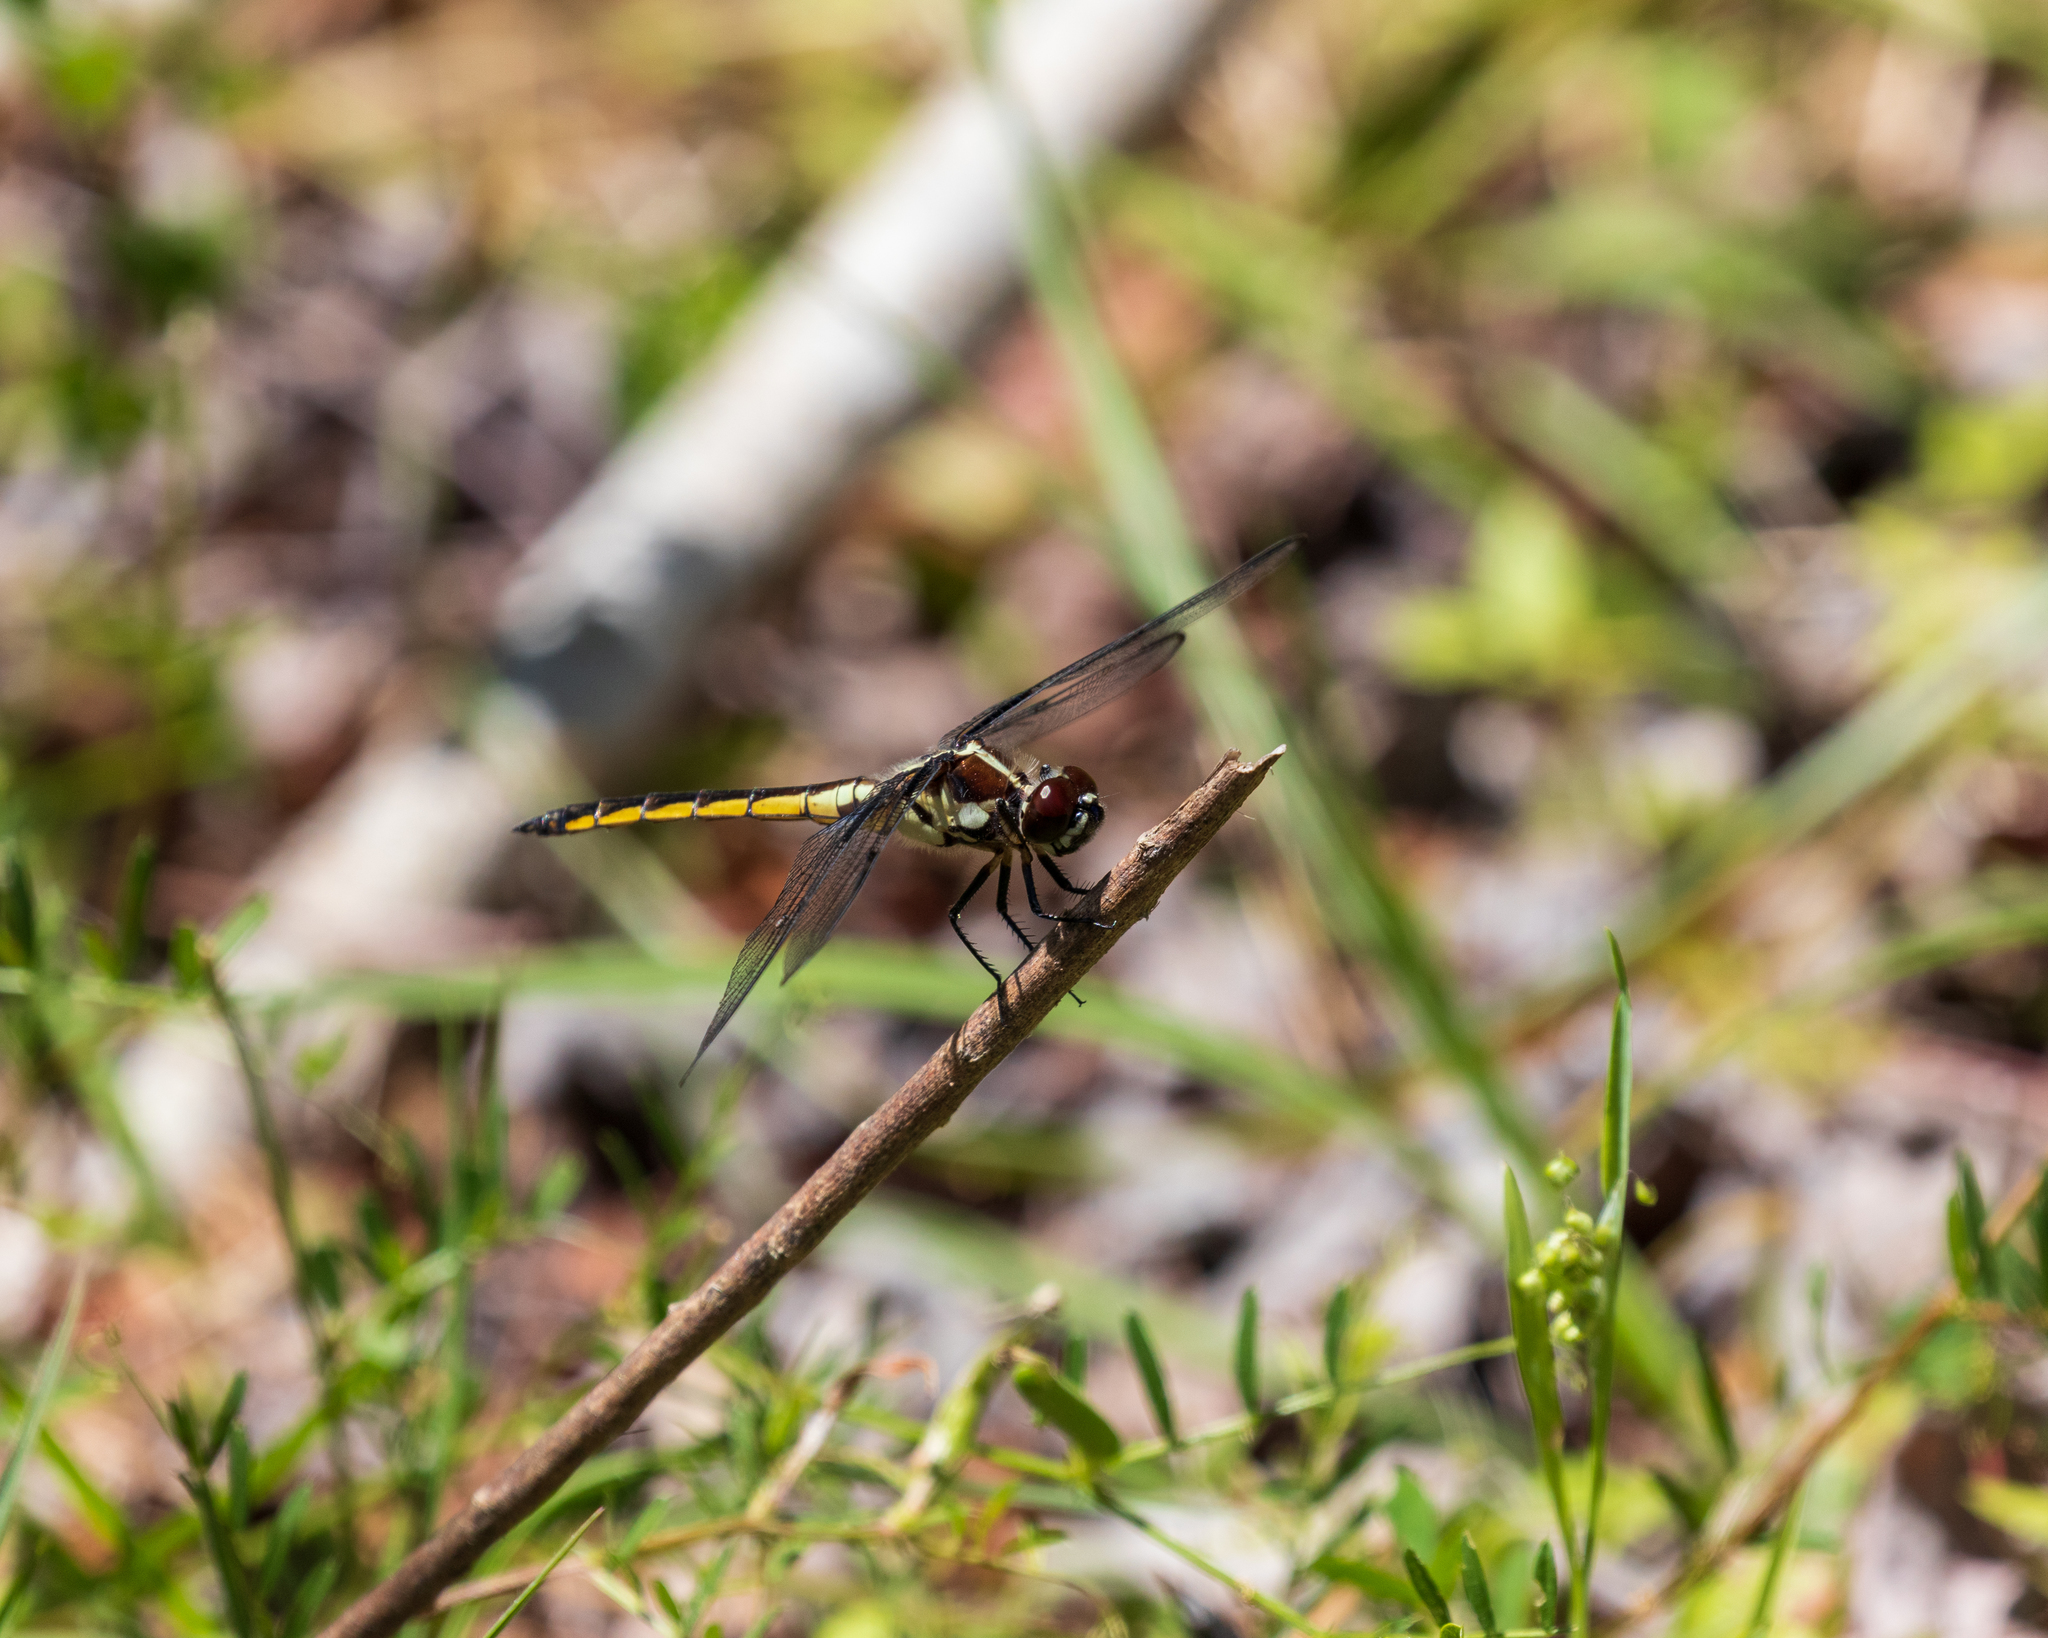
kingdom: Animalia
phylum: Arthropoda
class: Insecta
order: Odonata
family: Libellulidae
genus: Libellula
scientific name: Libellula axilena
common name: Bar-winged skimmer
